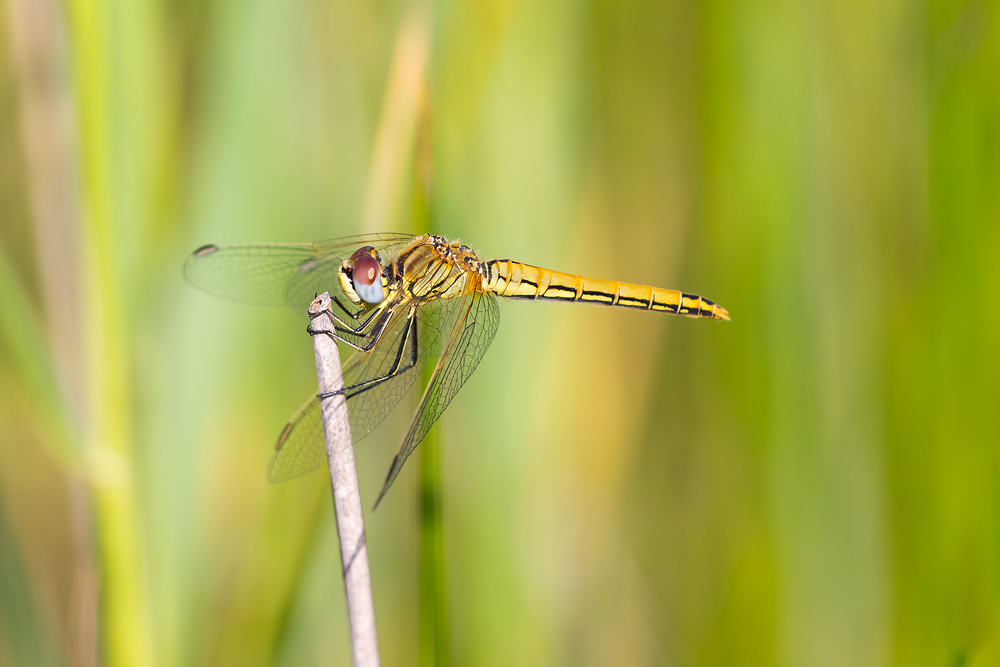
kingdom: Animalia
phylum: Arthropoda
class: Insecta
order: Odonata
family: Libellulidae
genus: Sympetrum
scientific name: Sympetrum fonscolombii
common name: Red-veined darter
